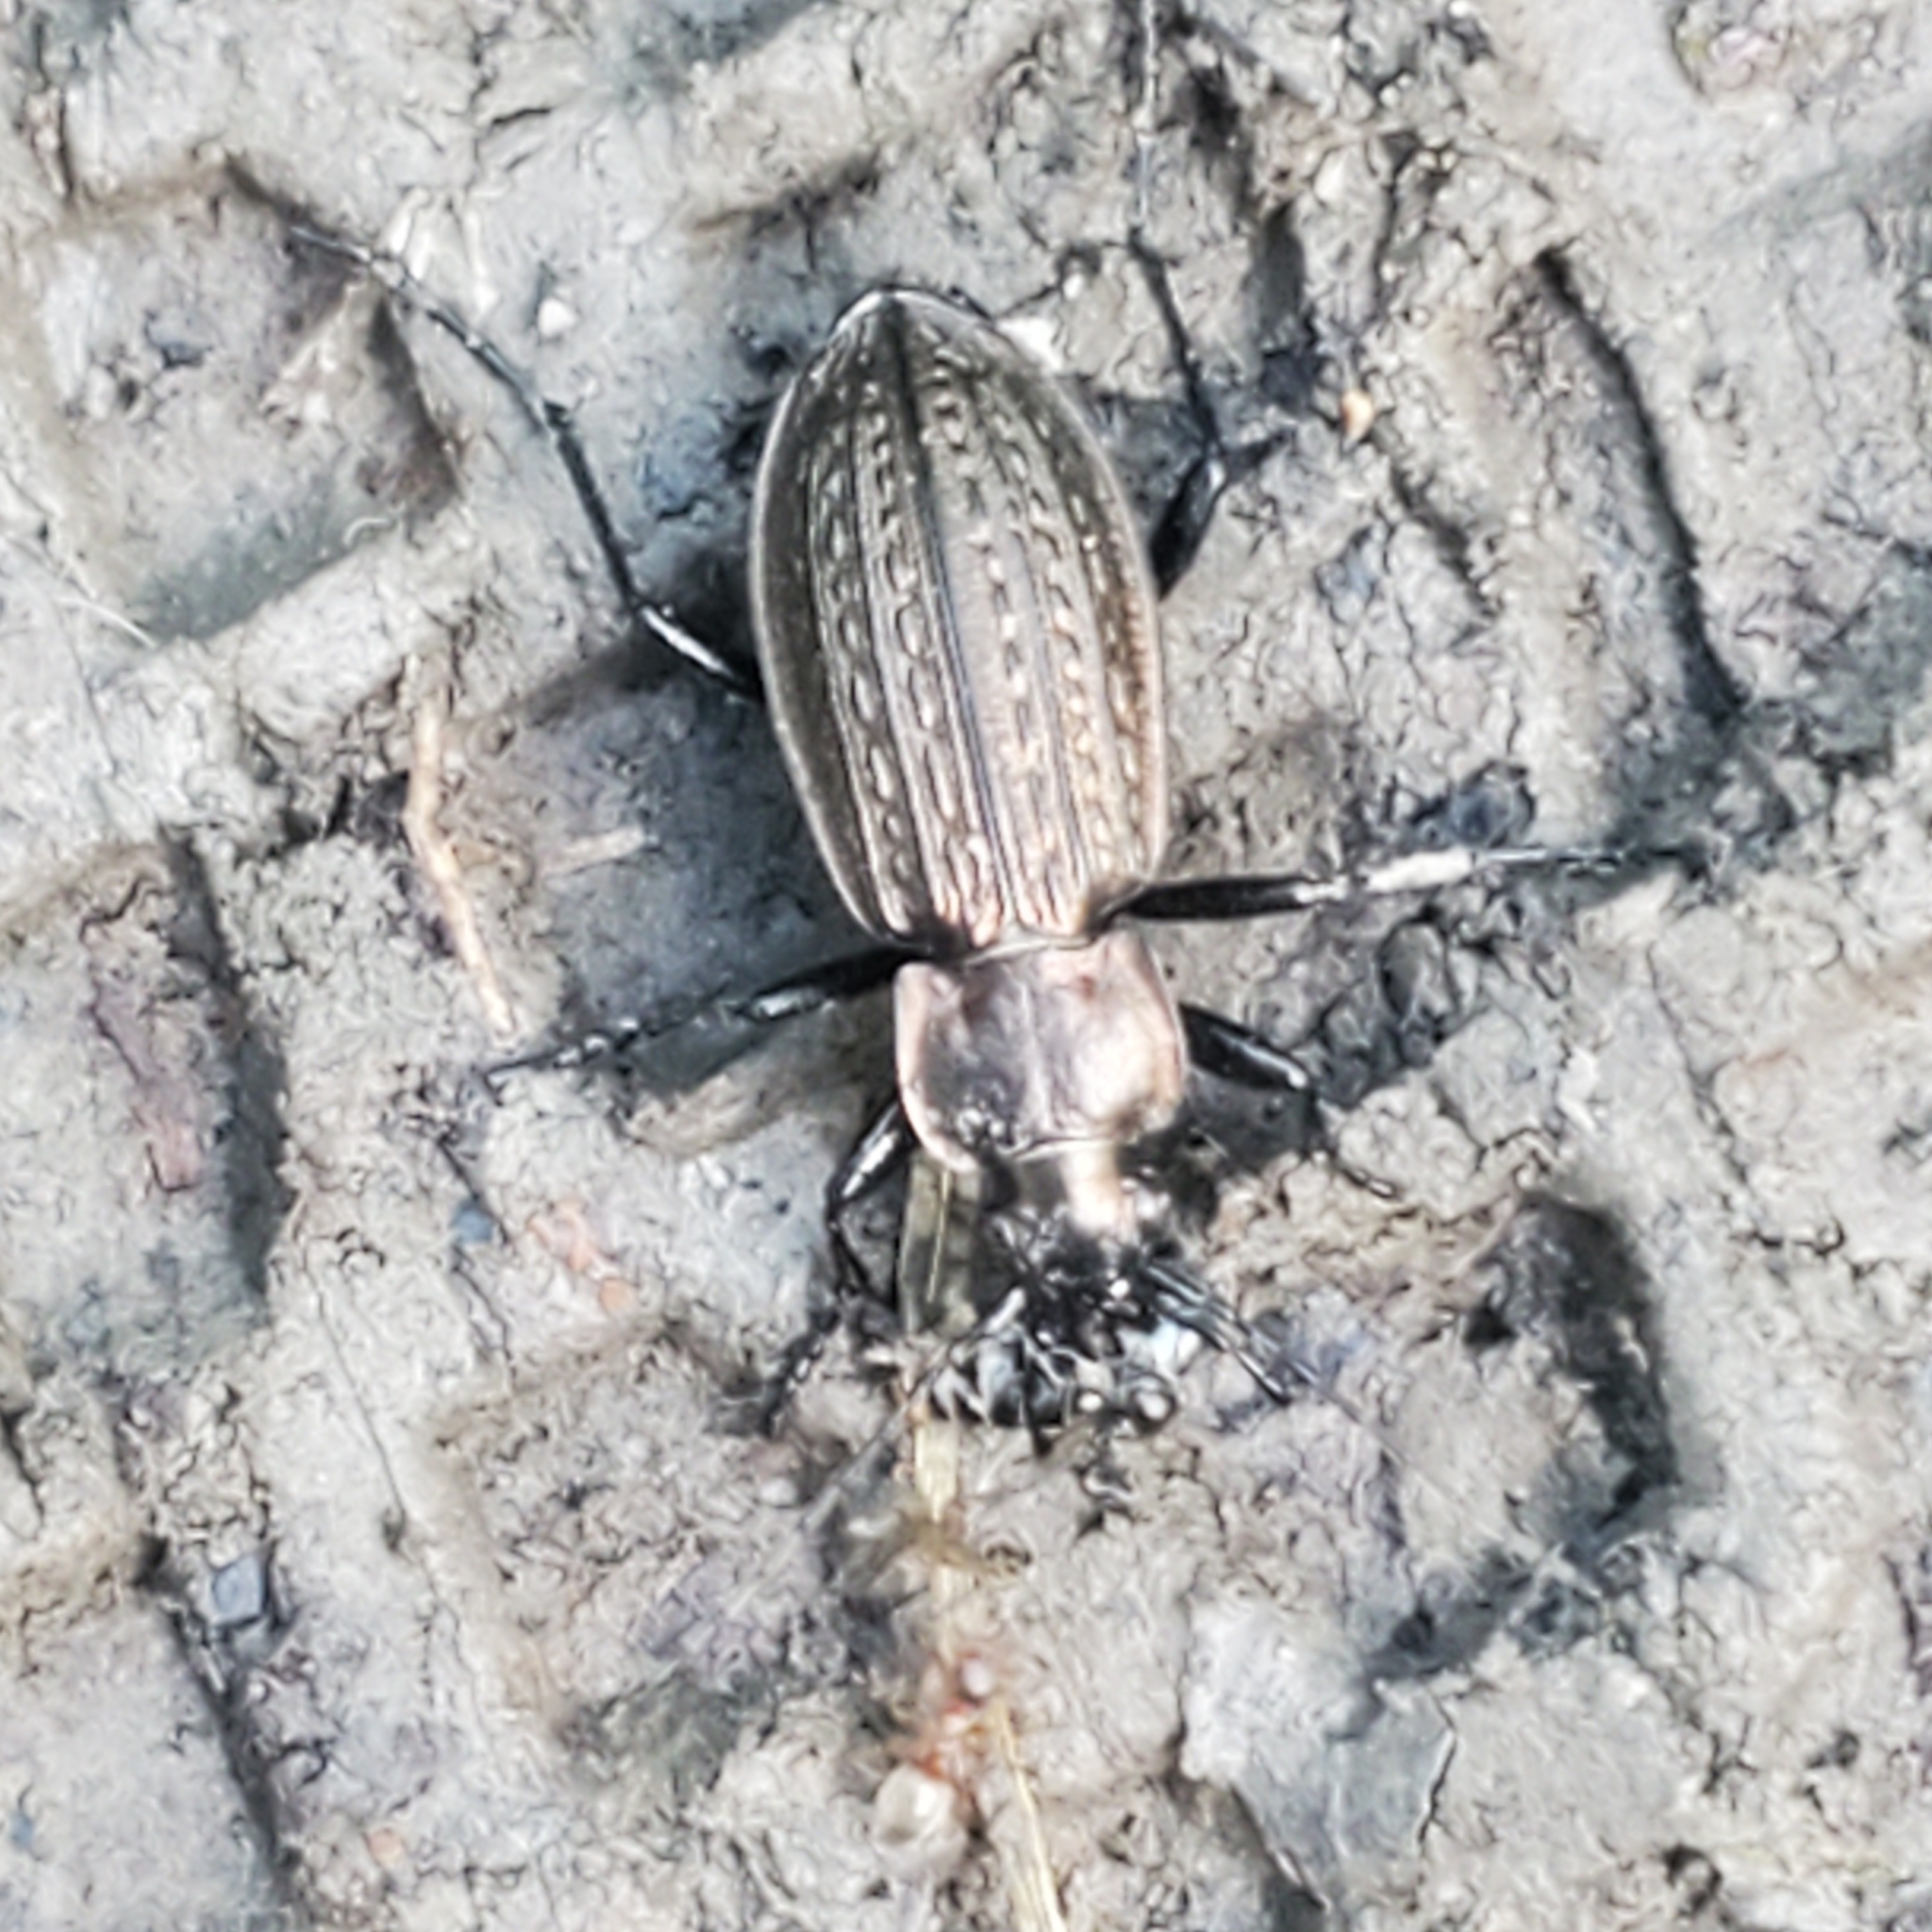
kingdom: Animalia
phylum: Arthropoda
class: Insecta
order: Coleoptera
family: Carabidae
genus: Carabus
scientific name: Carabus granulatus
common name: Granulate ground beetle
